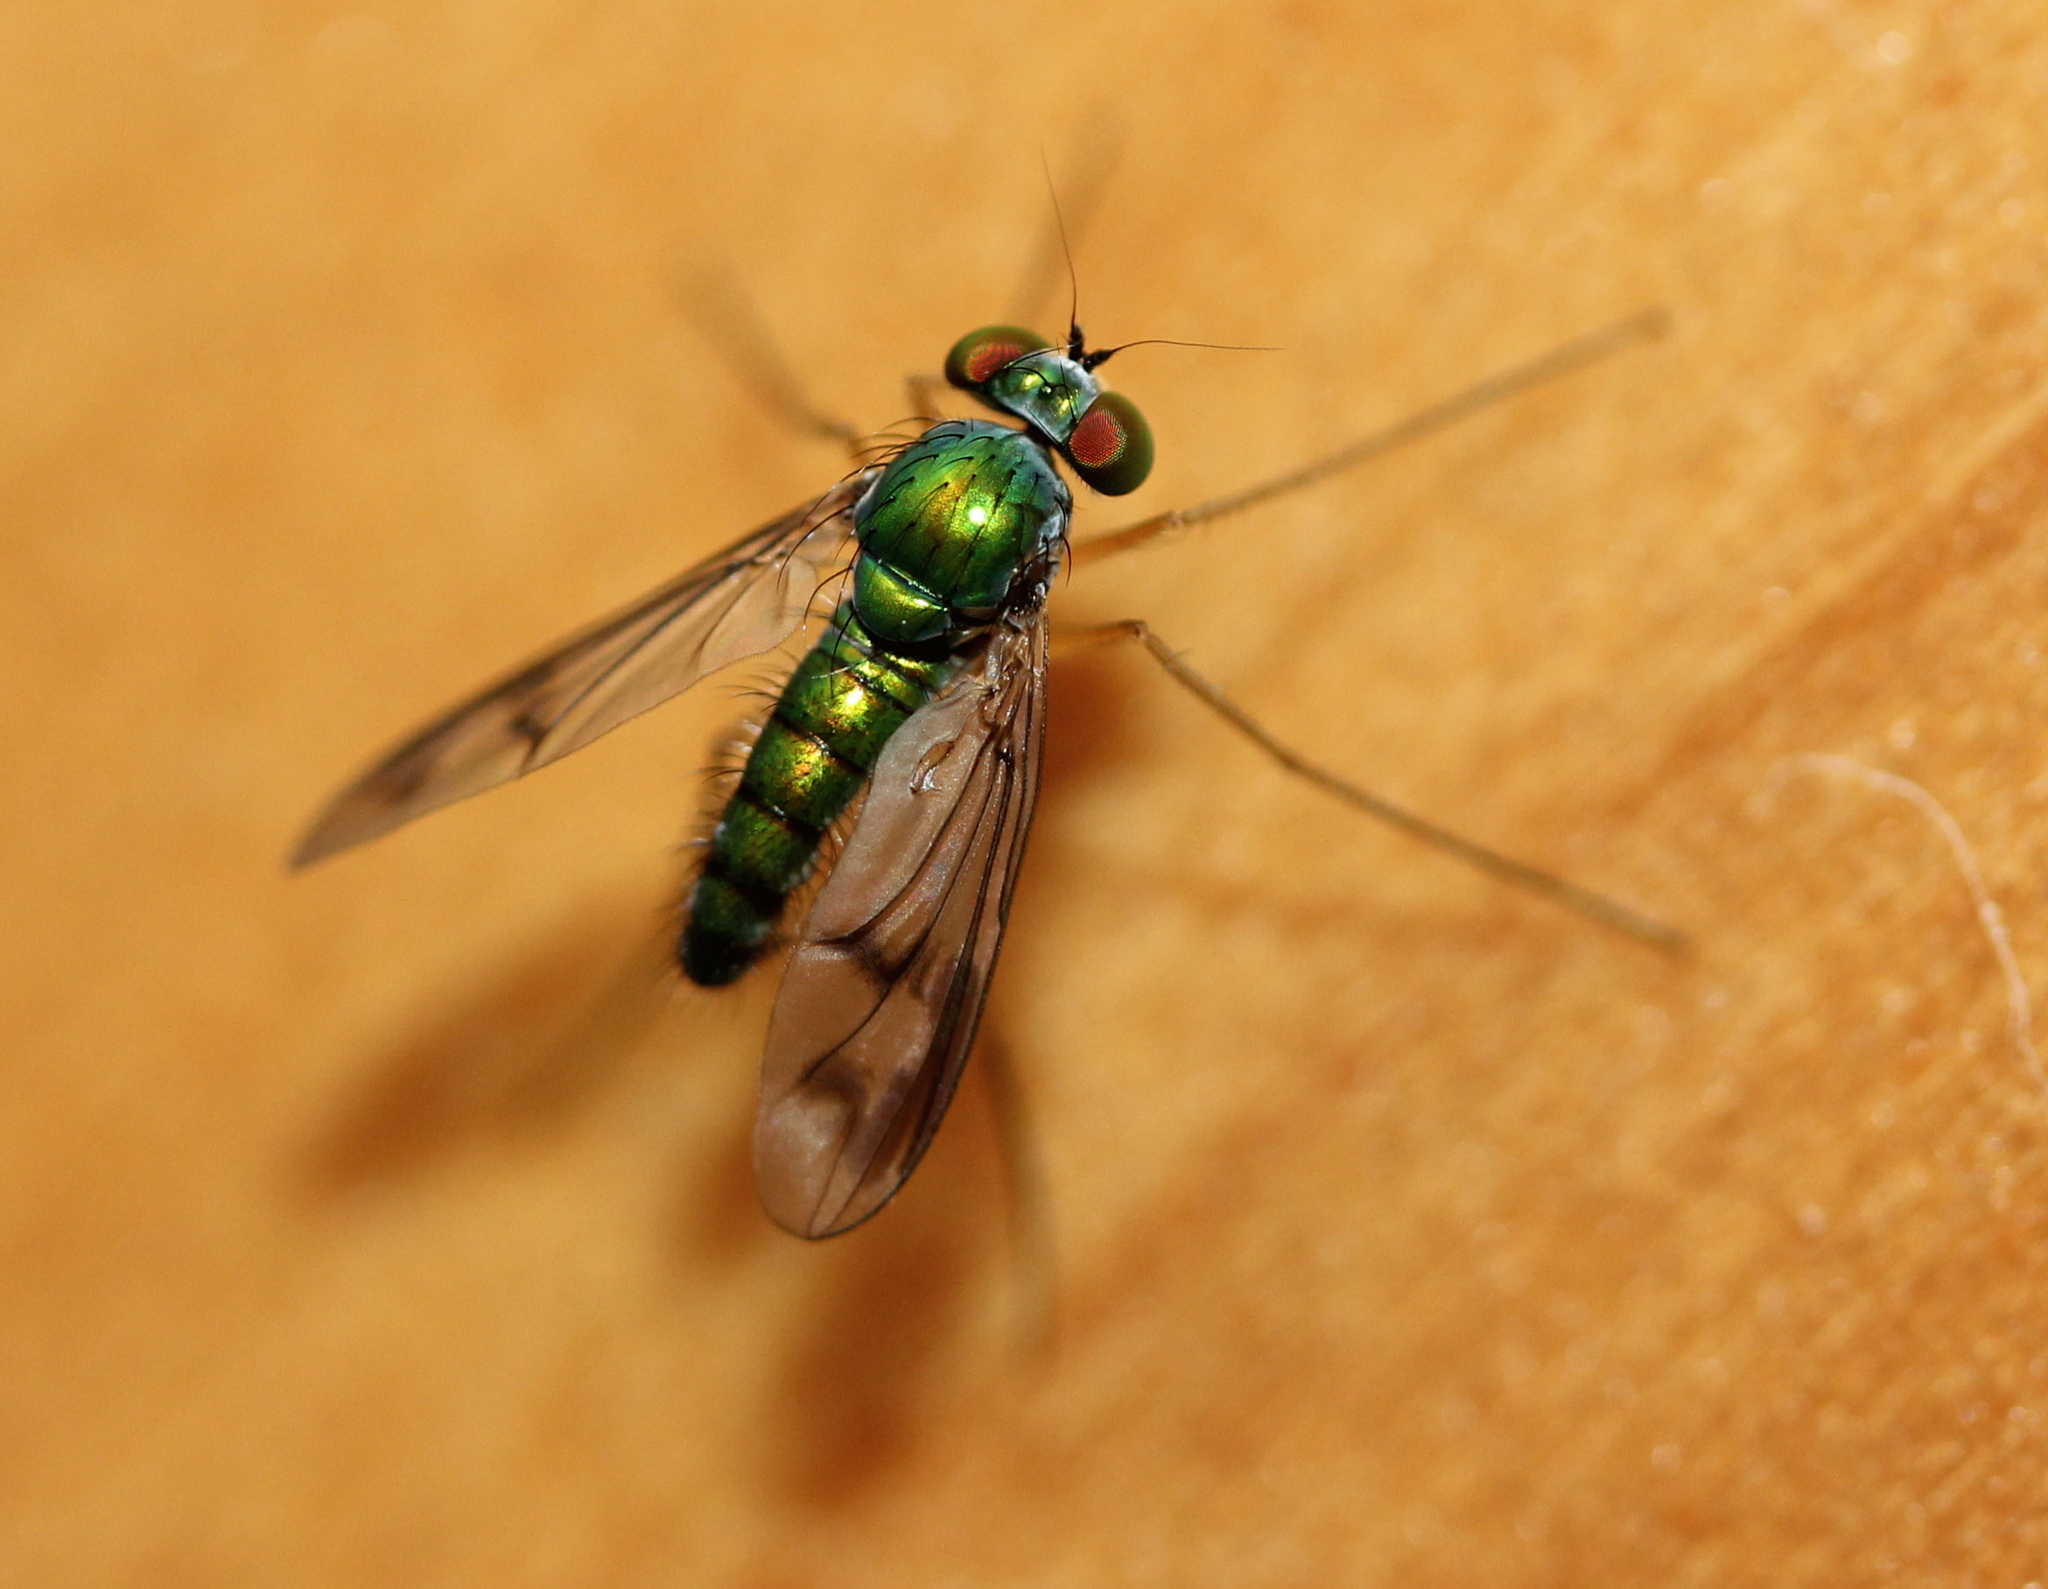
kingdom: Animalia
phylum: Arthropoda
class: Insecta
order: Diptera
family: Dolichopodidae
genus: Condylostylus
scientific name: Condylostylus
